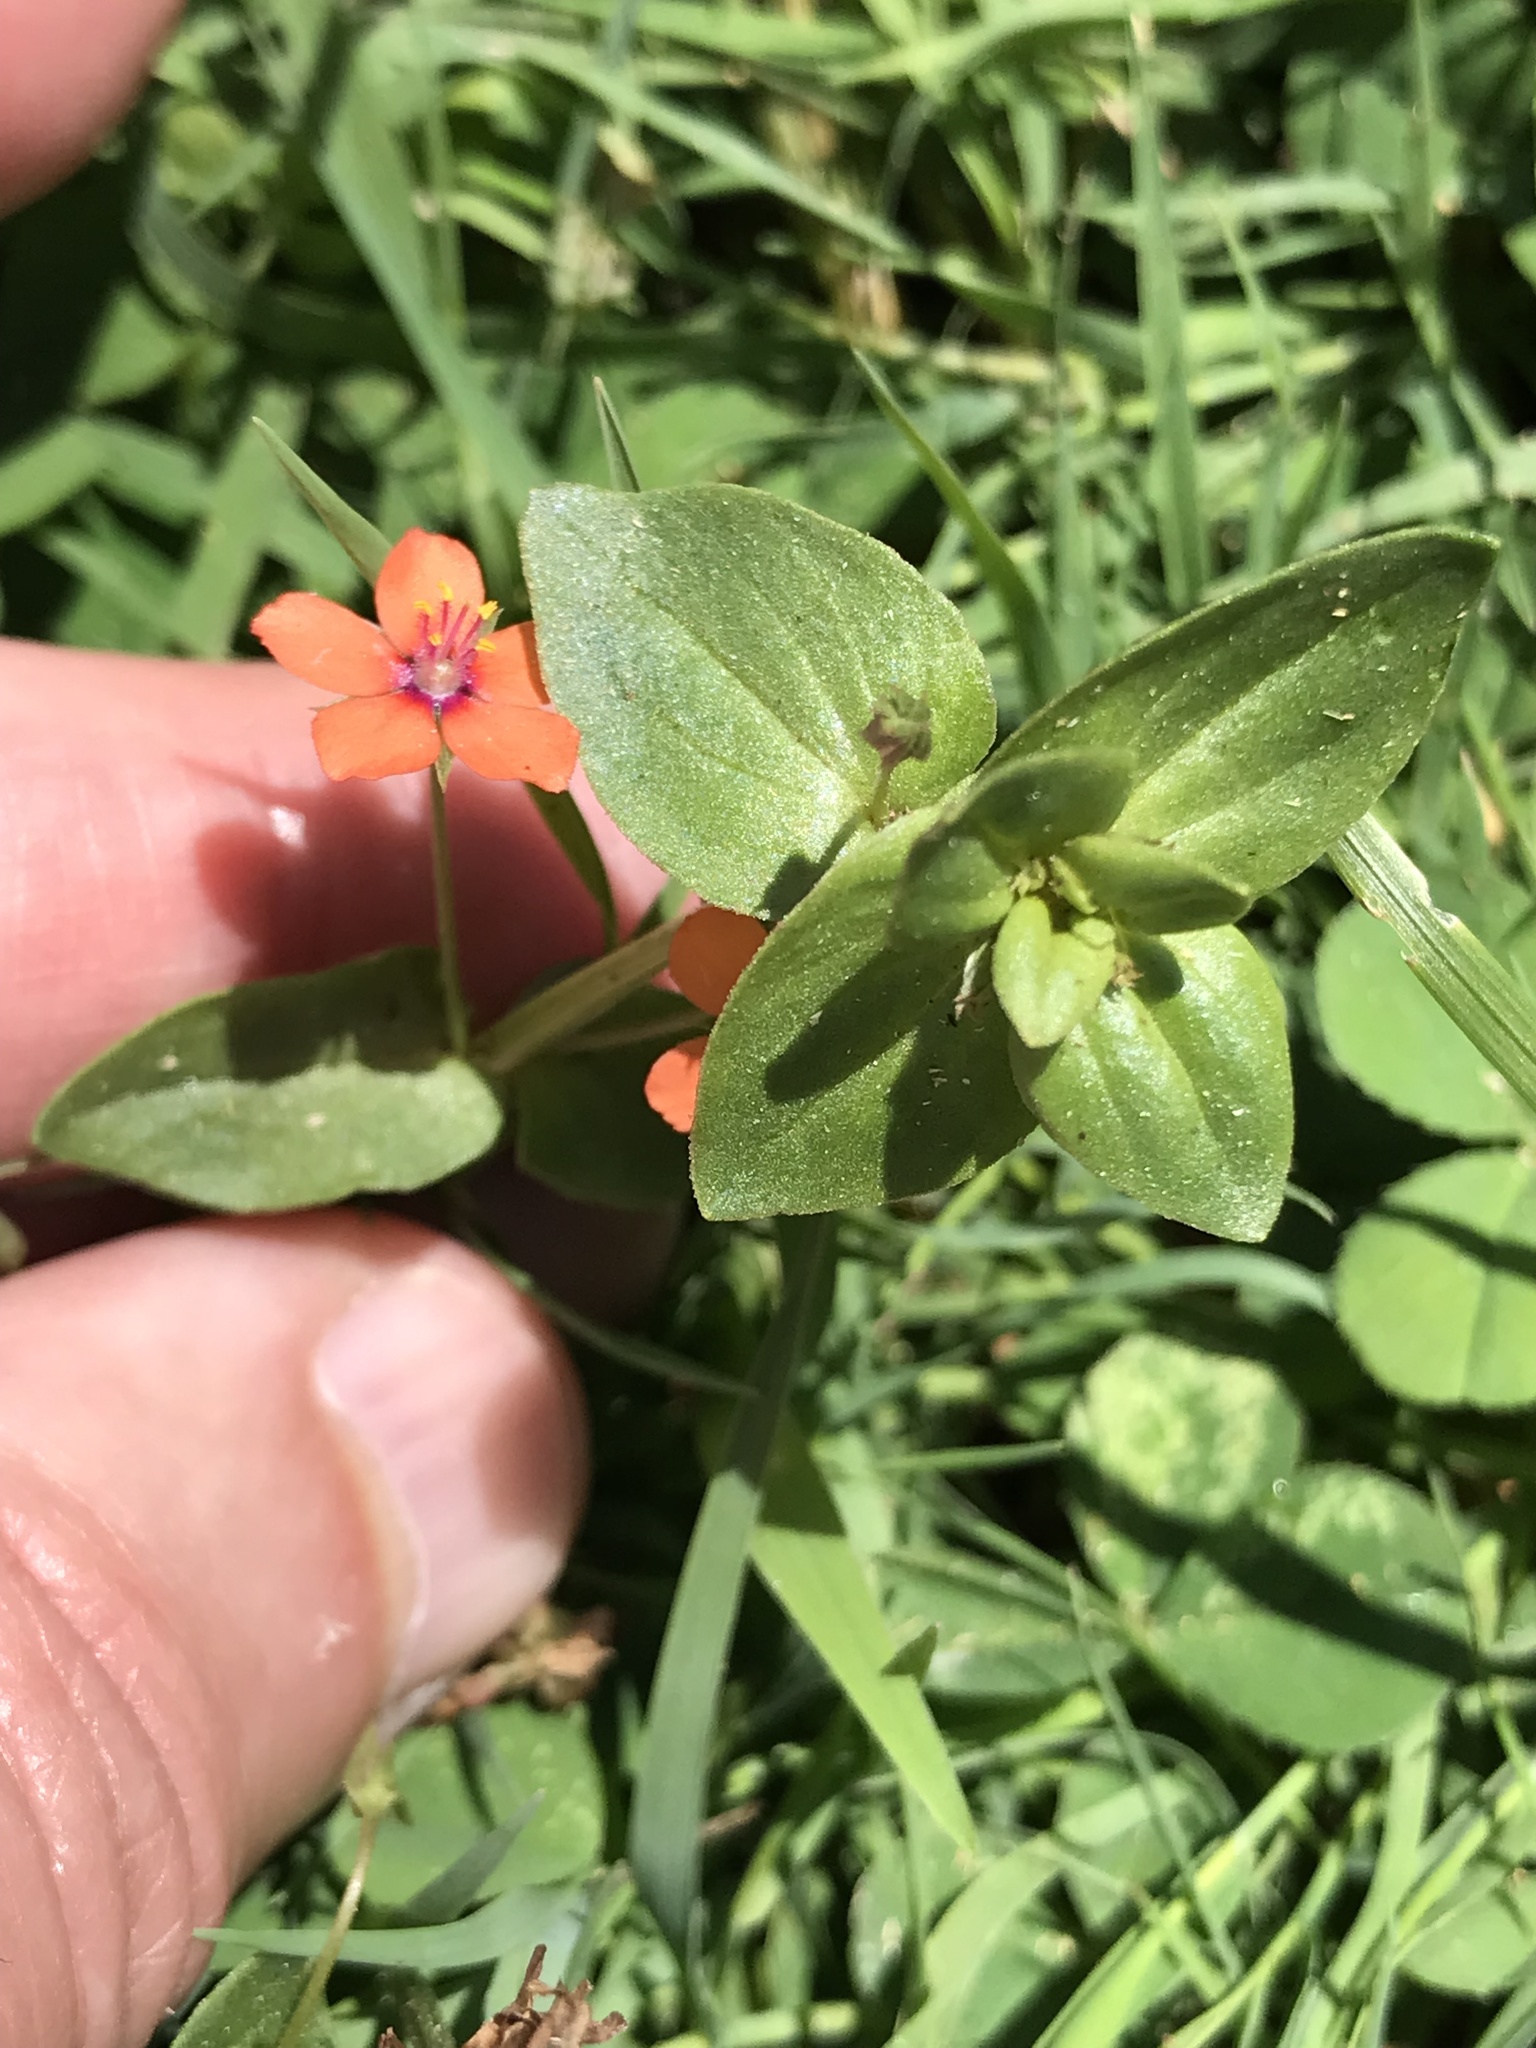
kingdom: Plantae
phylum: Tracheophyta
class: Magnoliopsida
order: Ericales
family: Primulaceae
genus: Lysimachia
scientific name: Lysimachia arvensis
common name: Scarlet pimpernel
